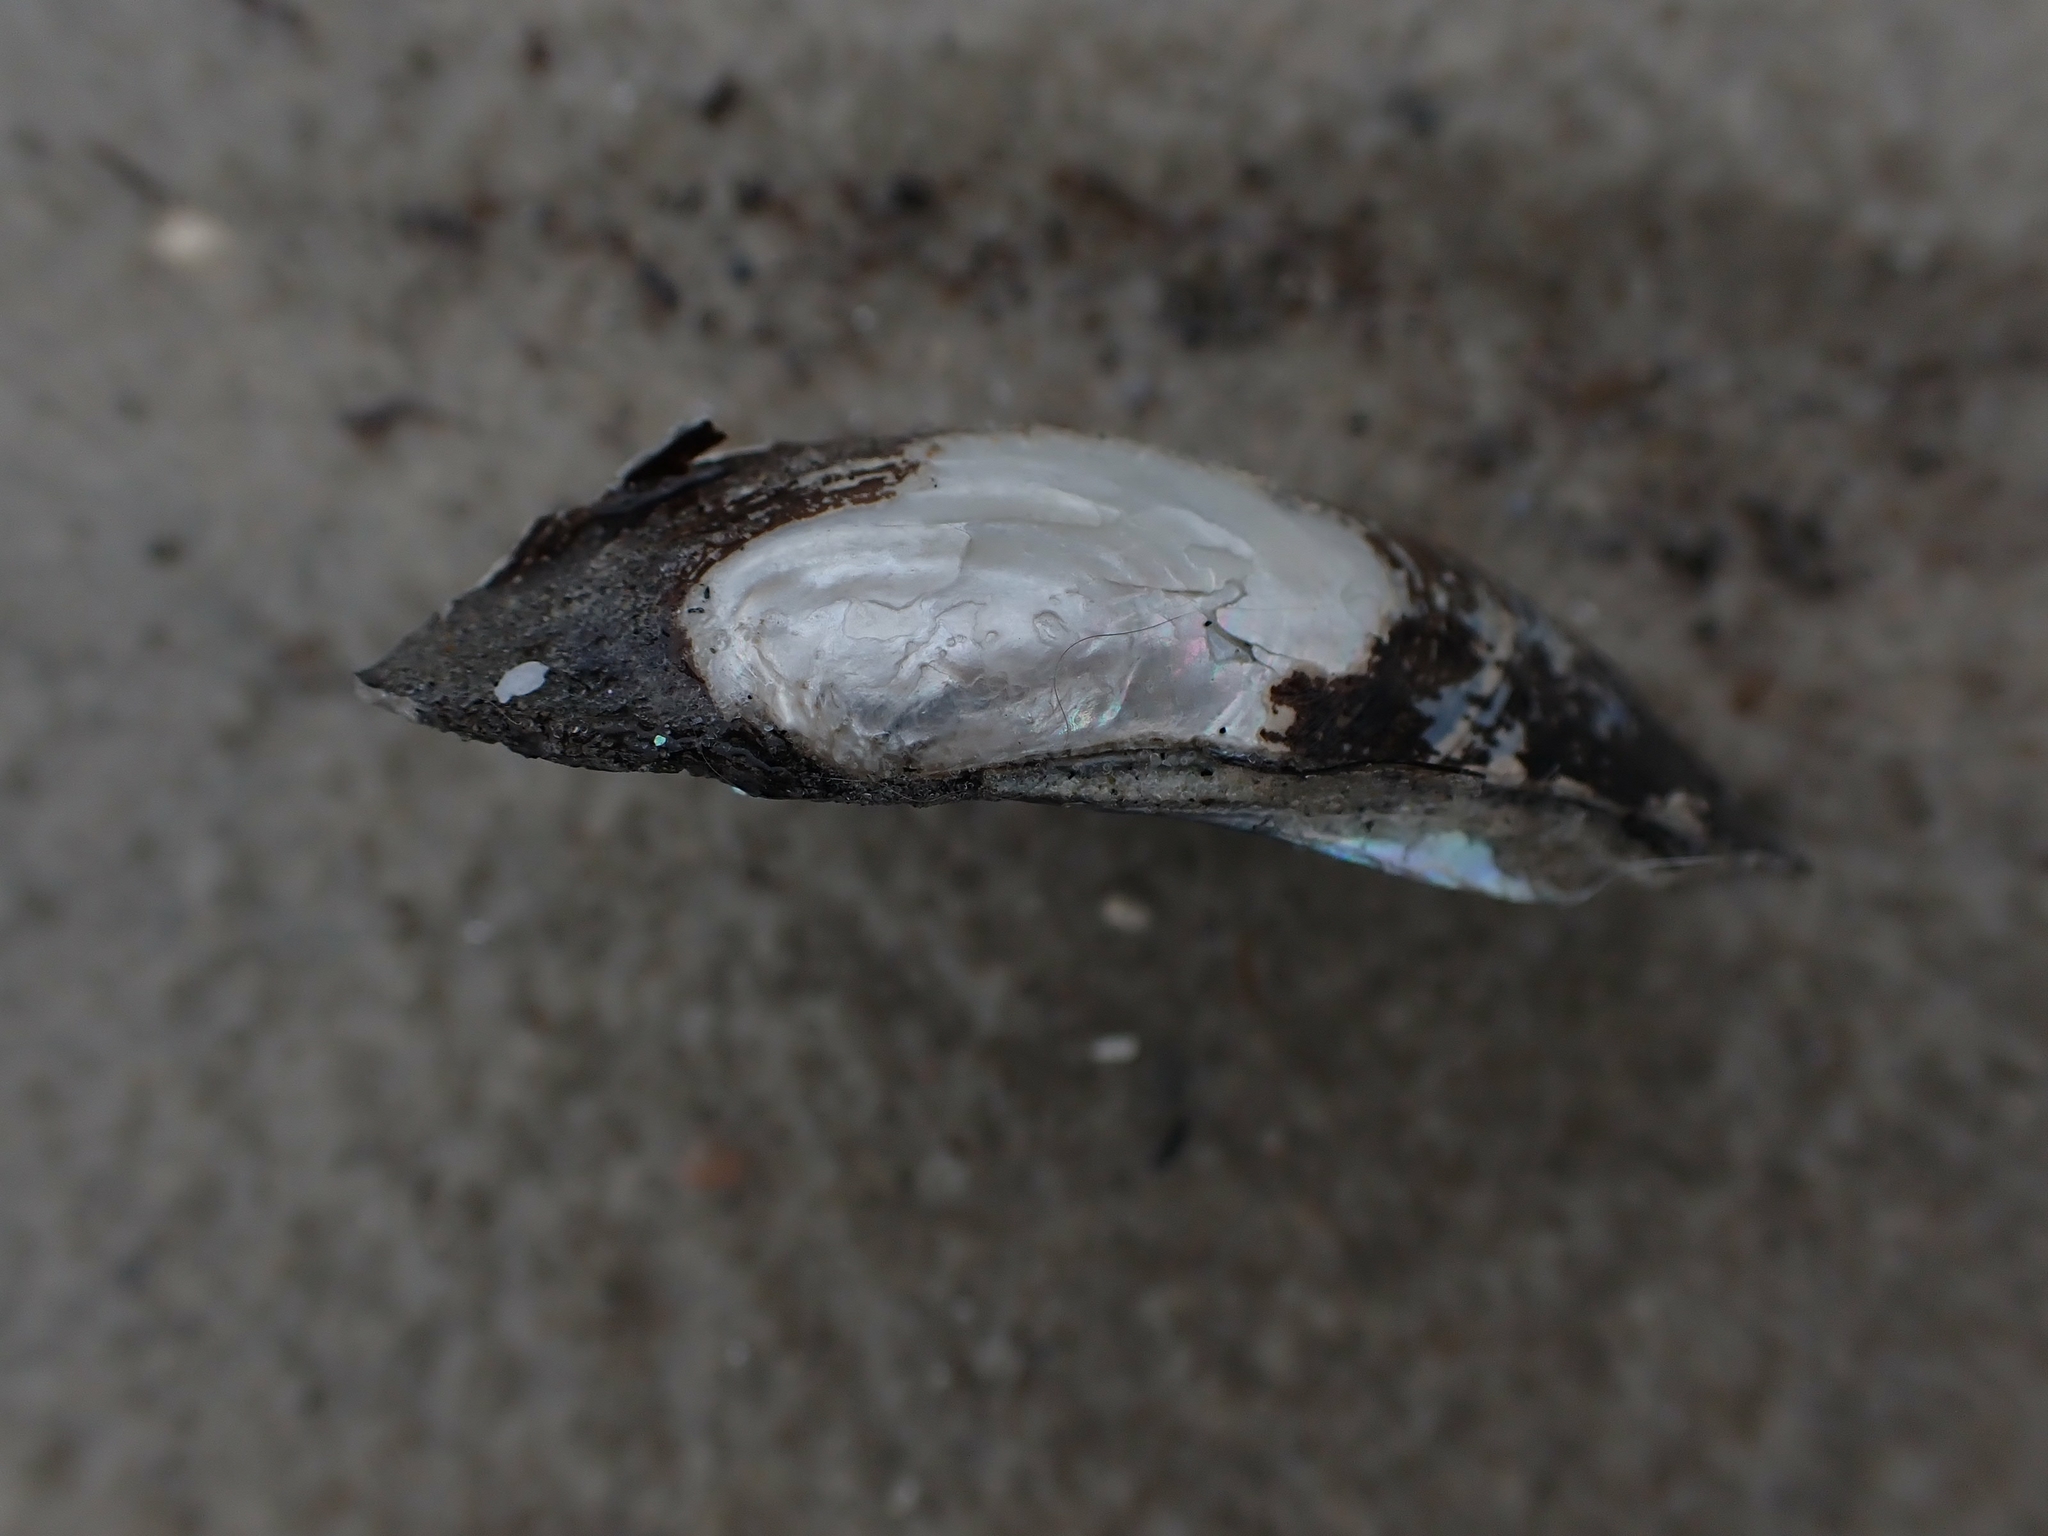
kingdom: Animalia
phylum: Mollusca
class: Bivalvia
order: Unionida
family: Unionidae
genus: Lampsilis
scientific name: Lampsilis siliquoidea
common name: Fatmucket
